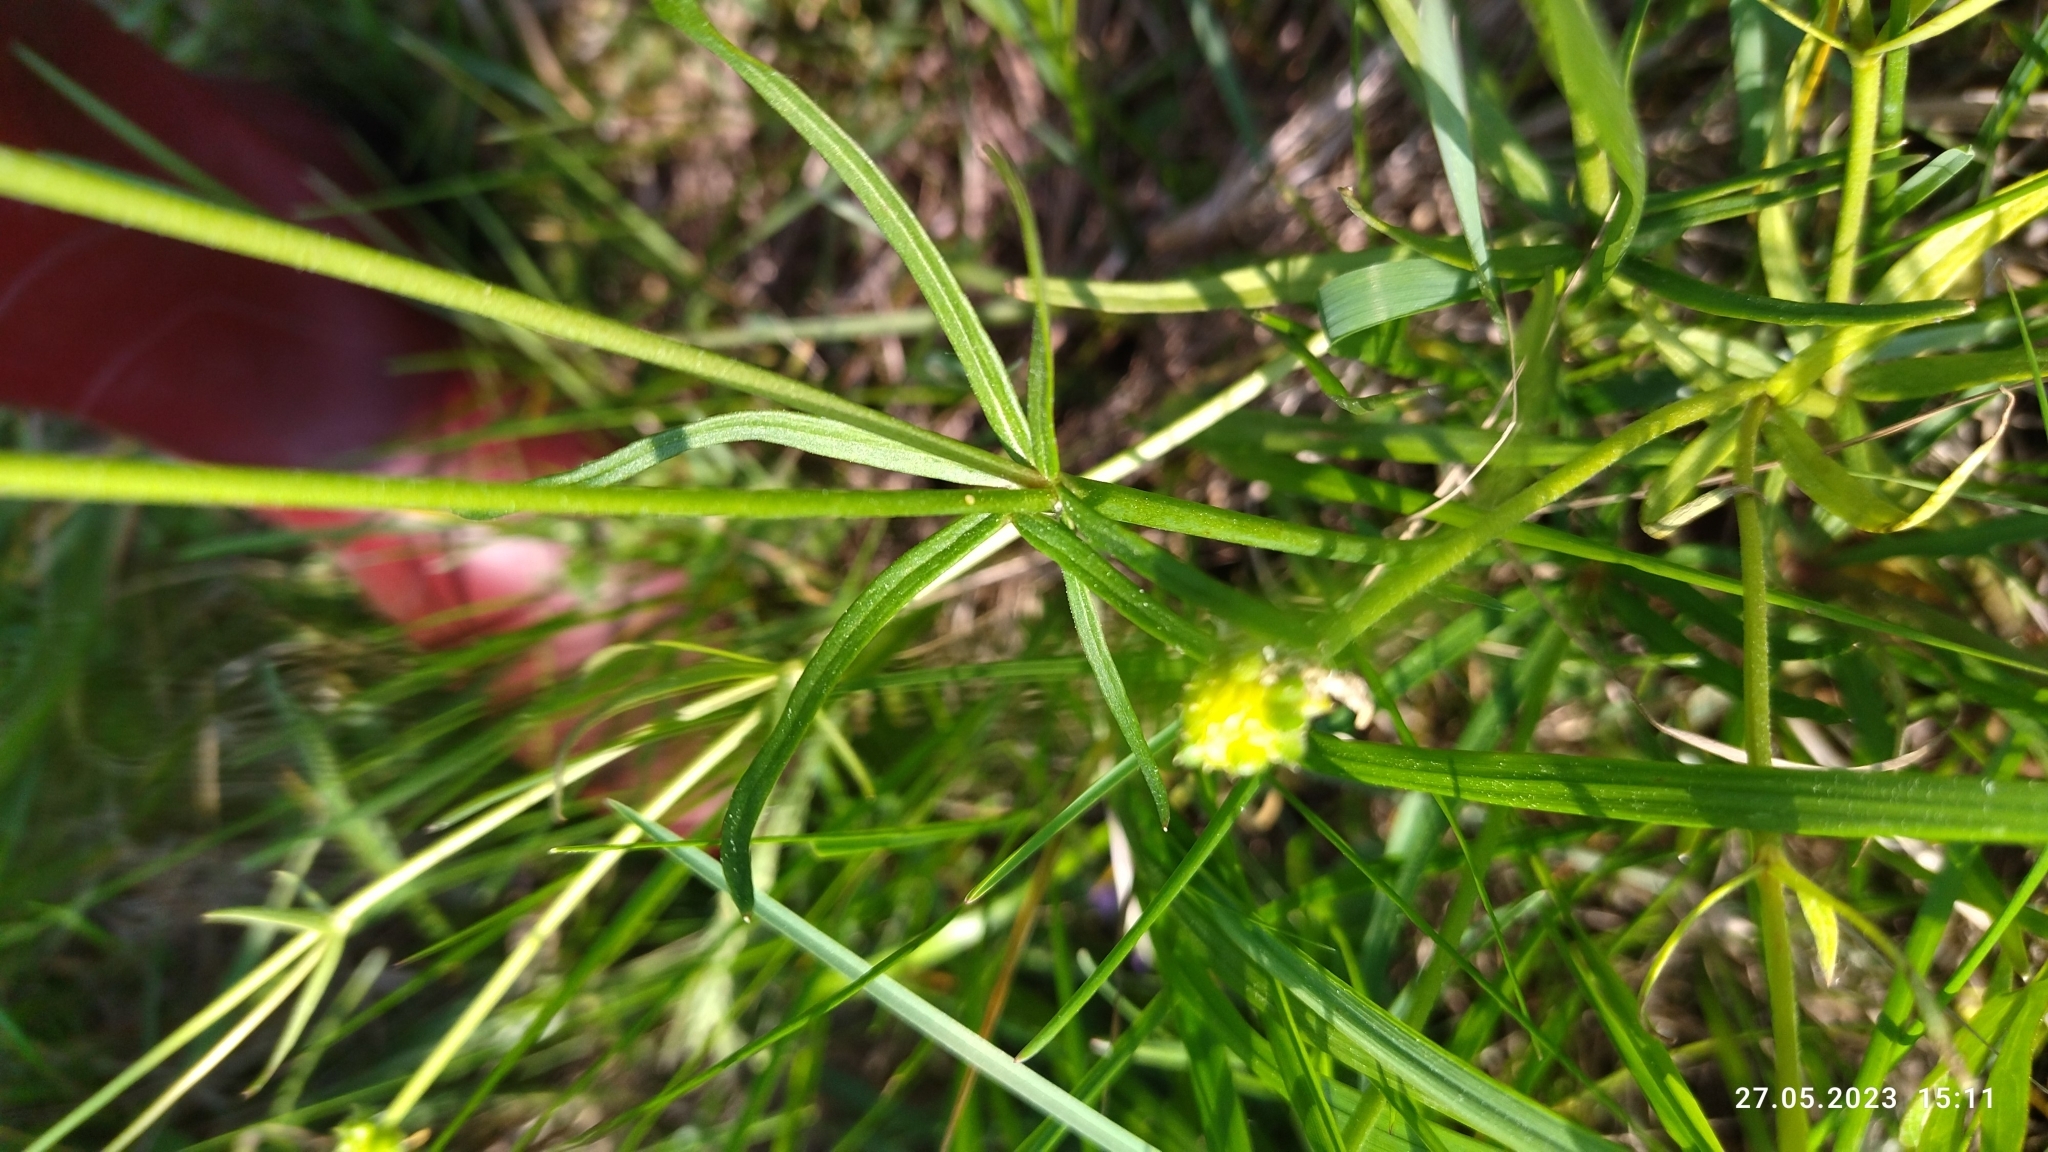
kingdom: Plantae
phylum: Tracheophyta
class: Magnoliopsida
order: Ranunculales
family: Ranunculaceae
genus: Ranunculus
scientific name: Ranunculus auricomus
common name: Goldilocks buttercup
